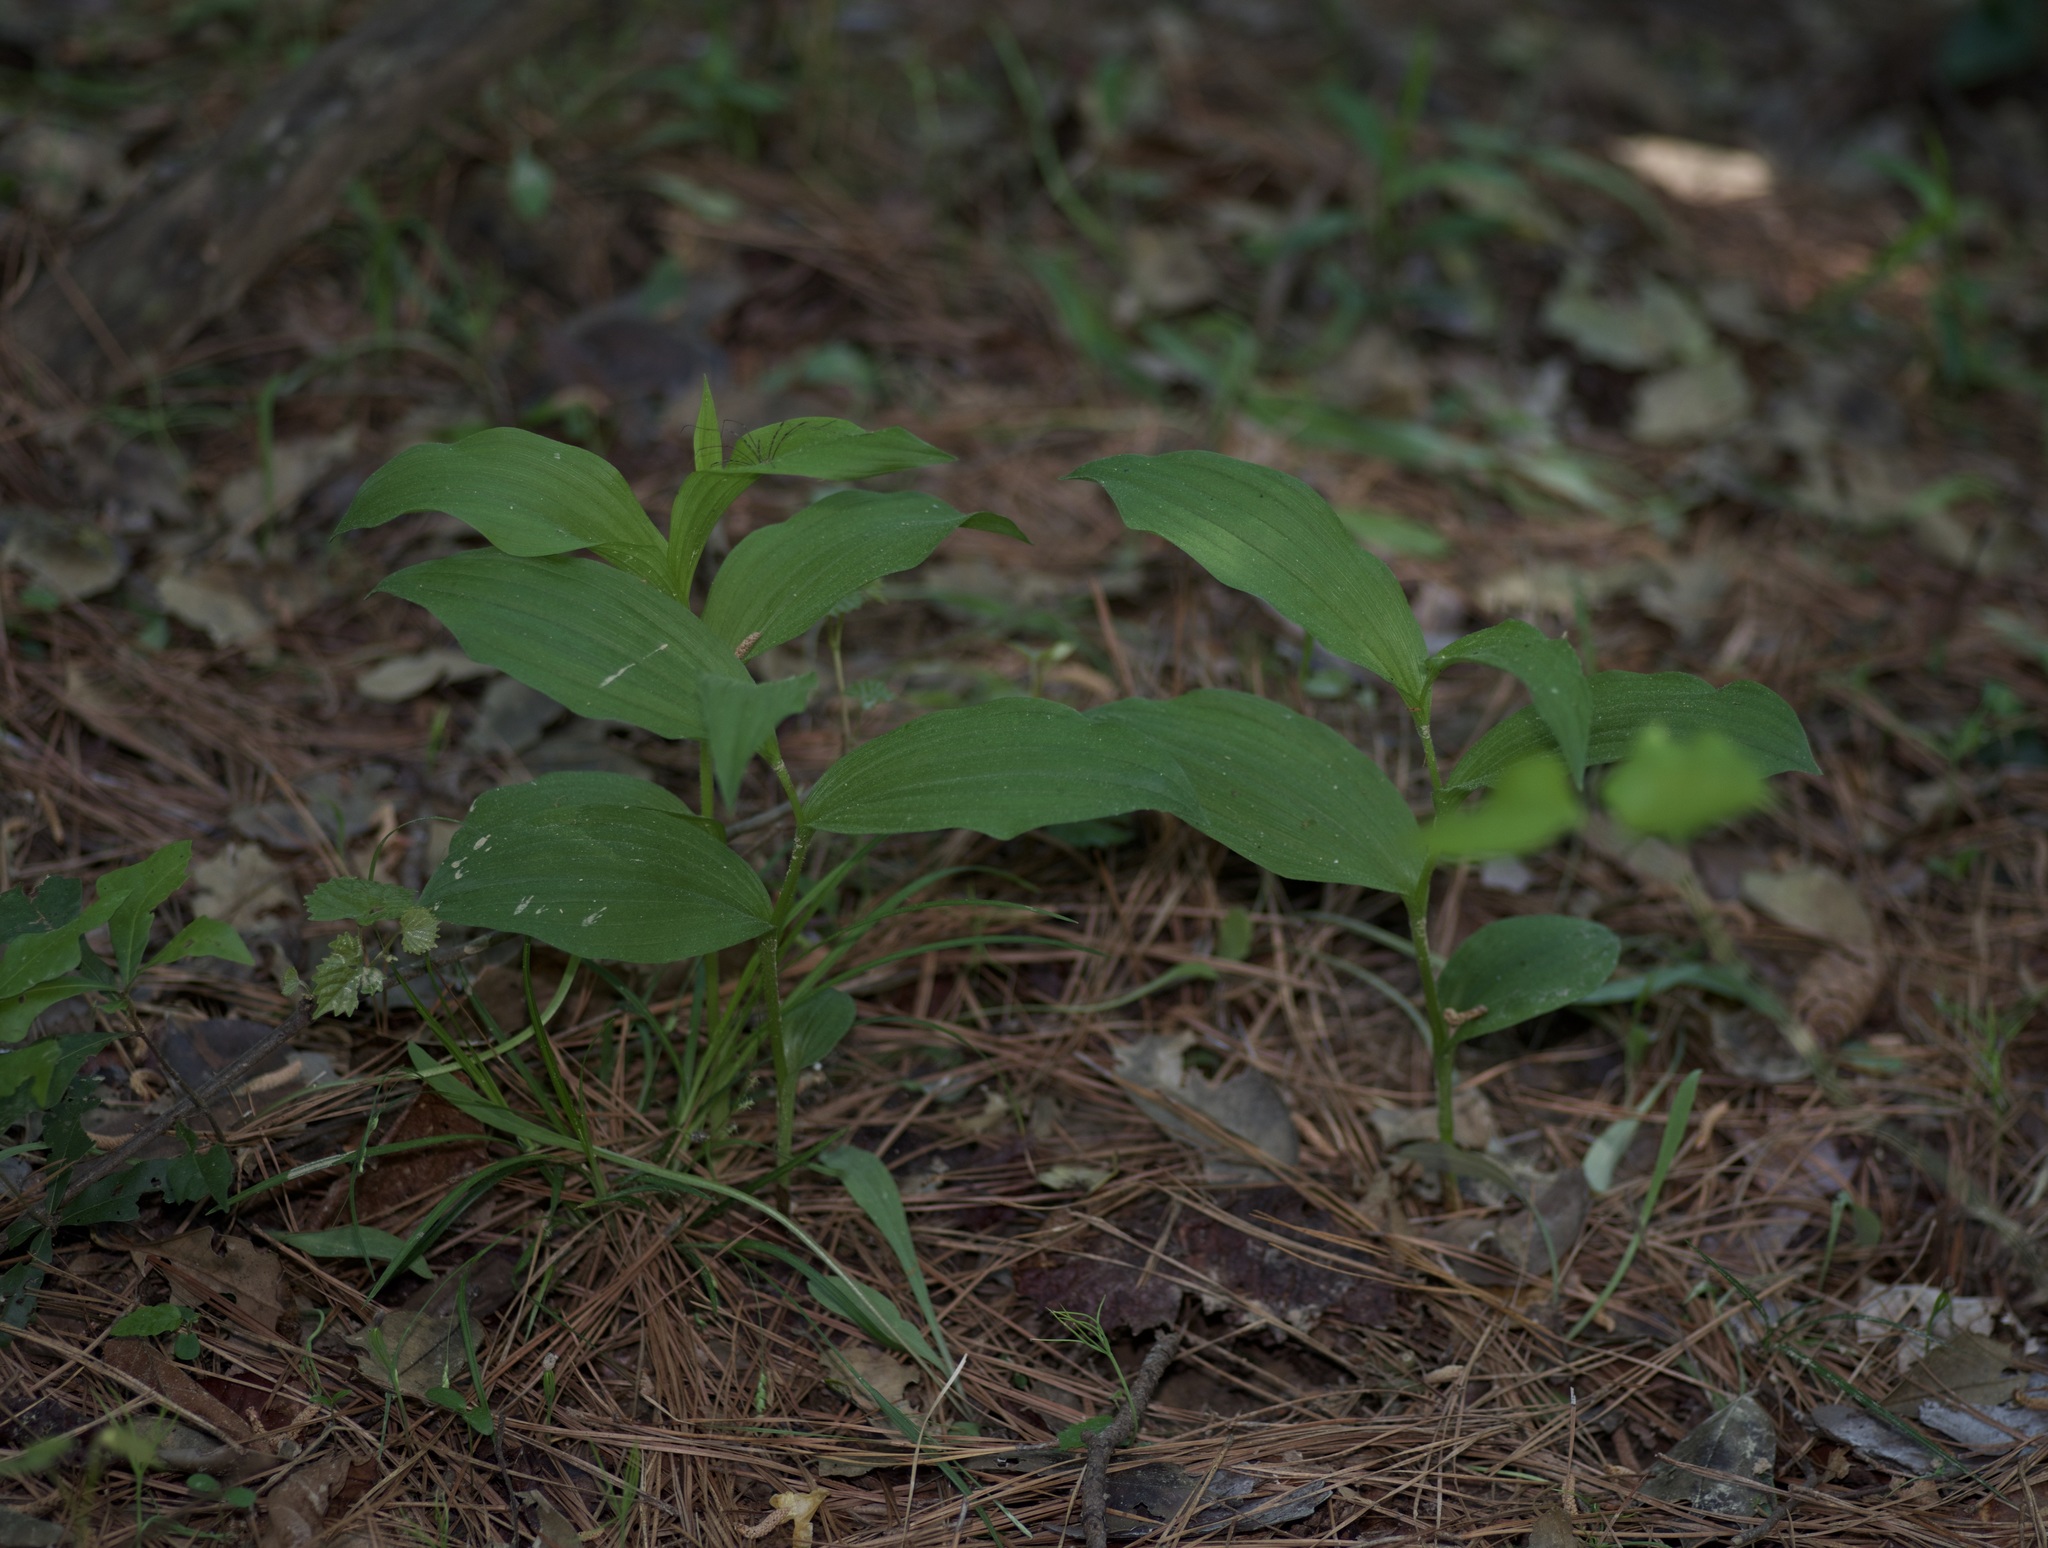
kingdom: Plantae
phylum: Tracheophyta
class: Liliopsida
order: Asparagales
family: Orchidaceae
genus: Cypripedium
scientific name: Cypripedium kentuckiense
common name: Kentucky lady's slipper
